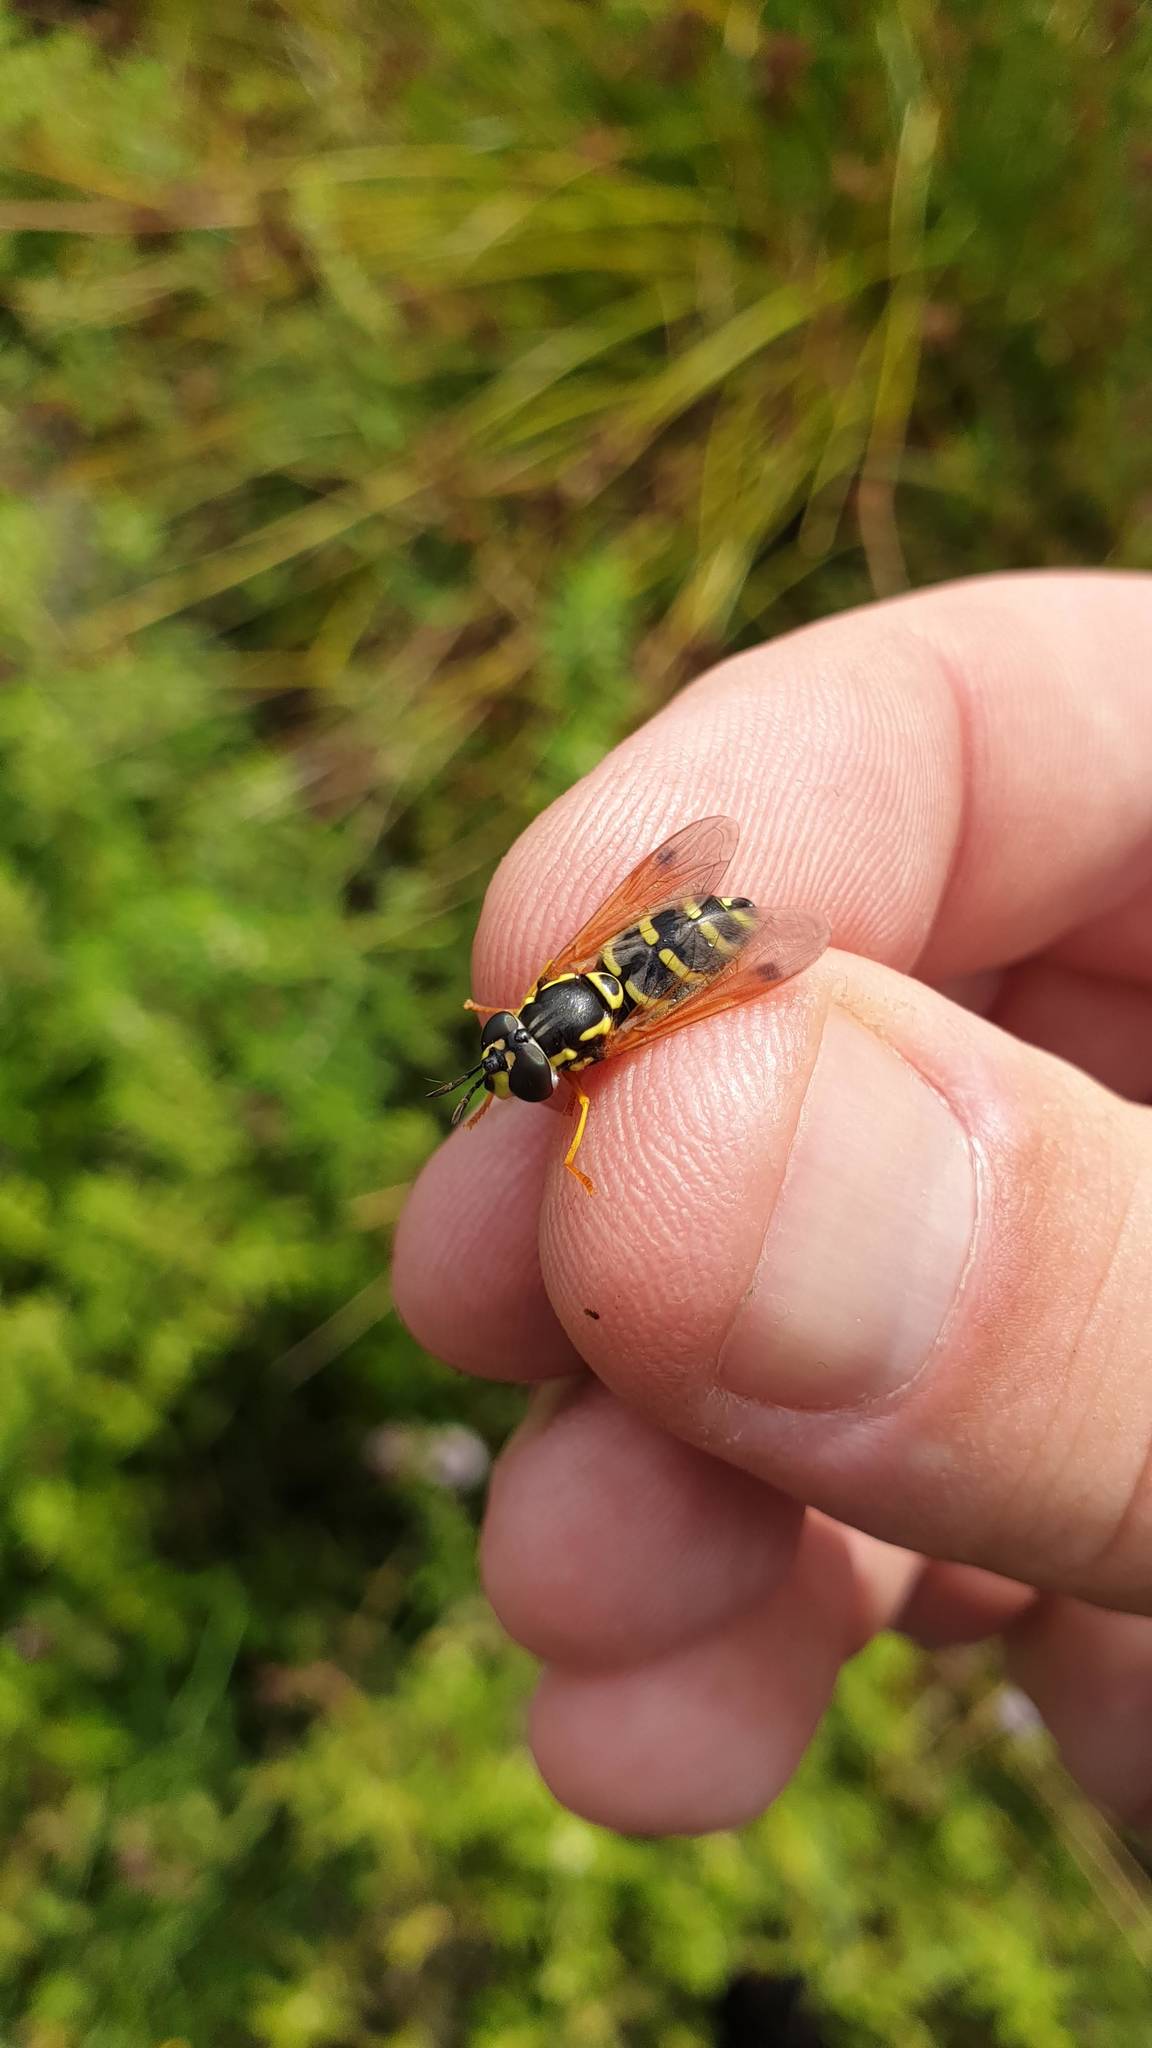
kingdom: Animalia
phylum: Arthropoda
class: Insecta
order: Diptera
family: Syrphidae
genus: Chrysotoxum
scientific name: Chrysotoxum festivum
